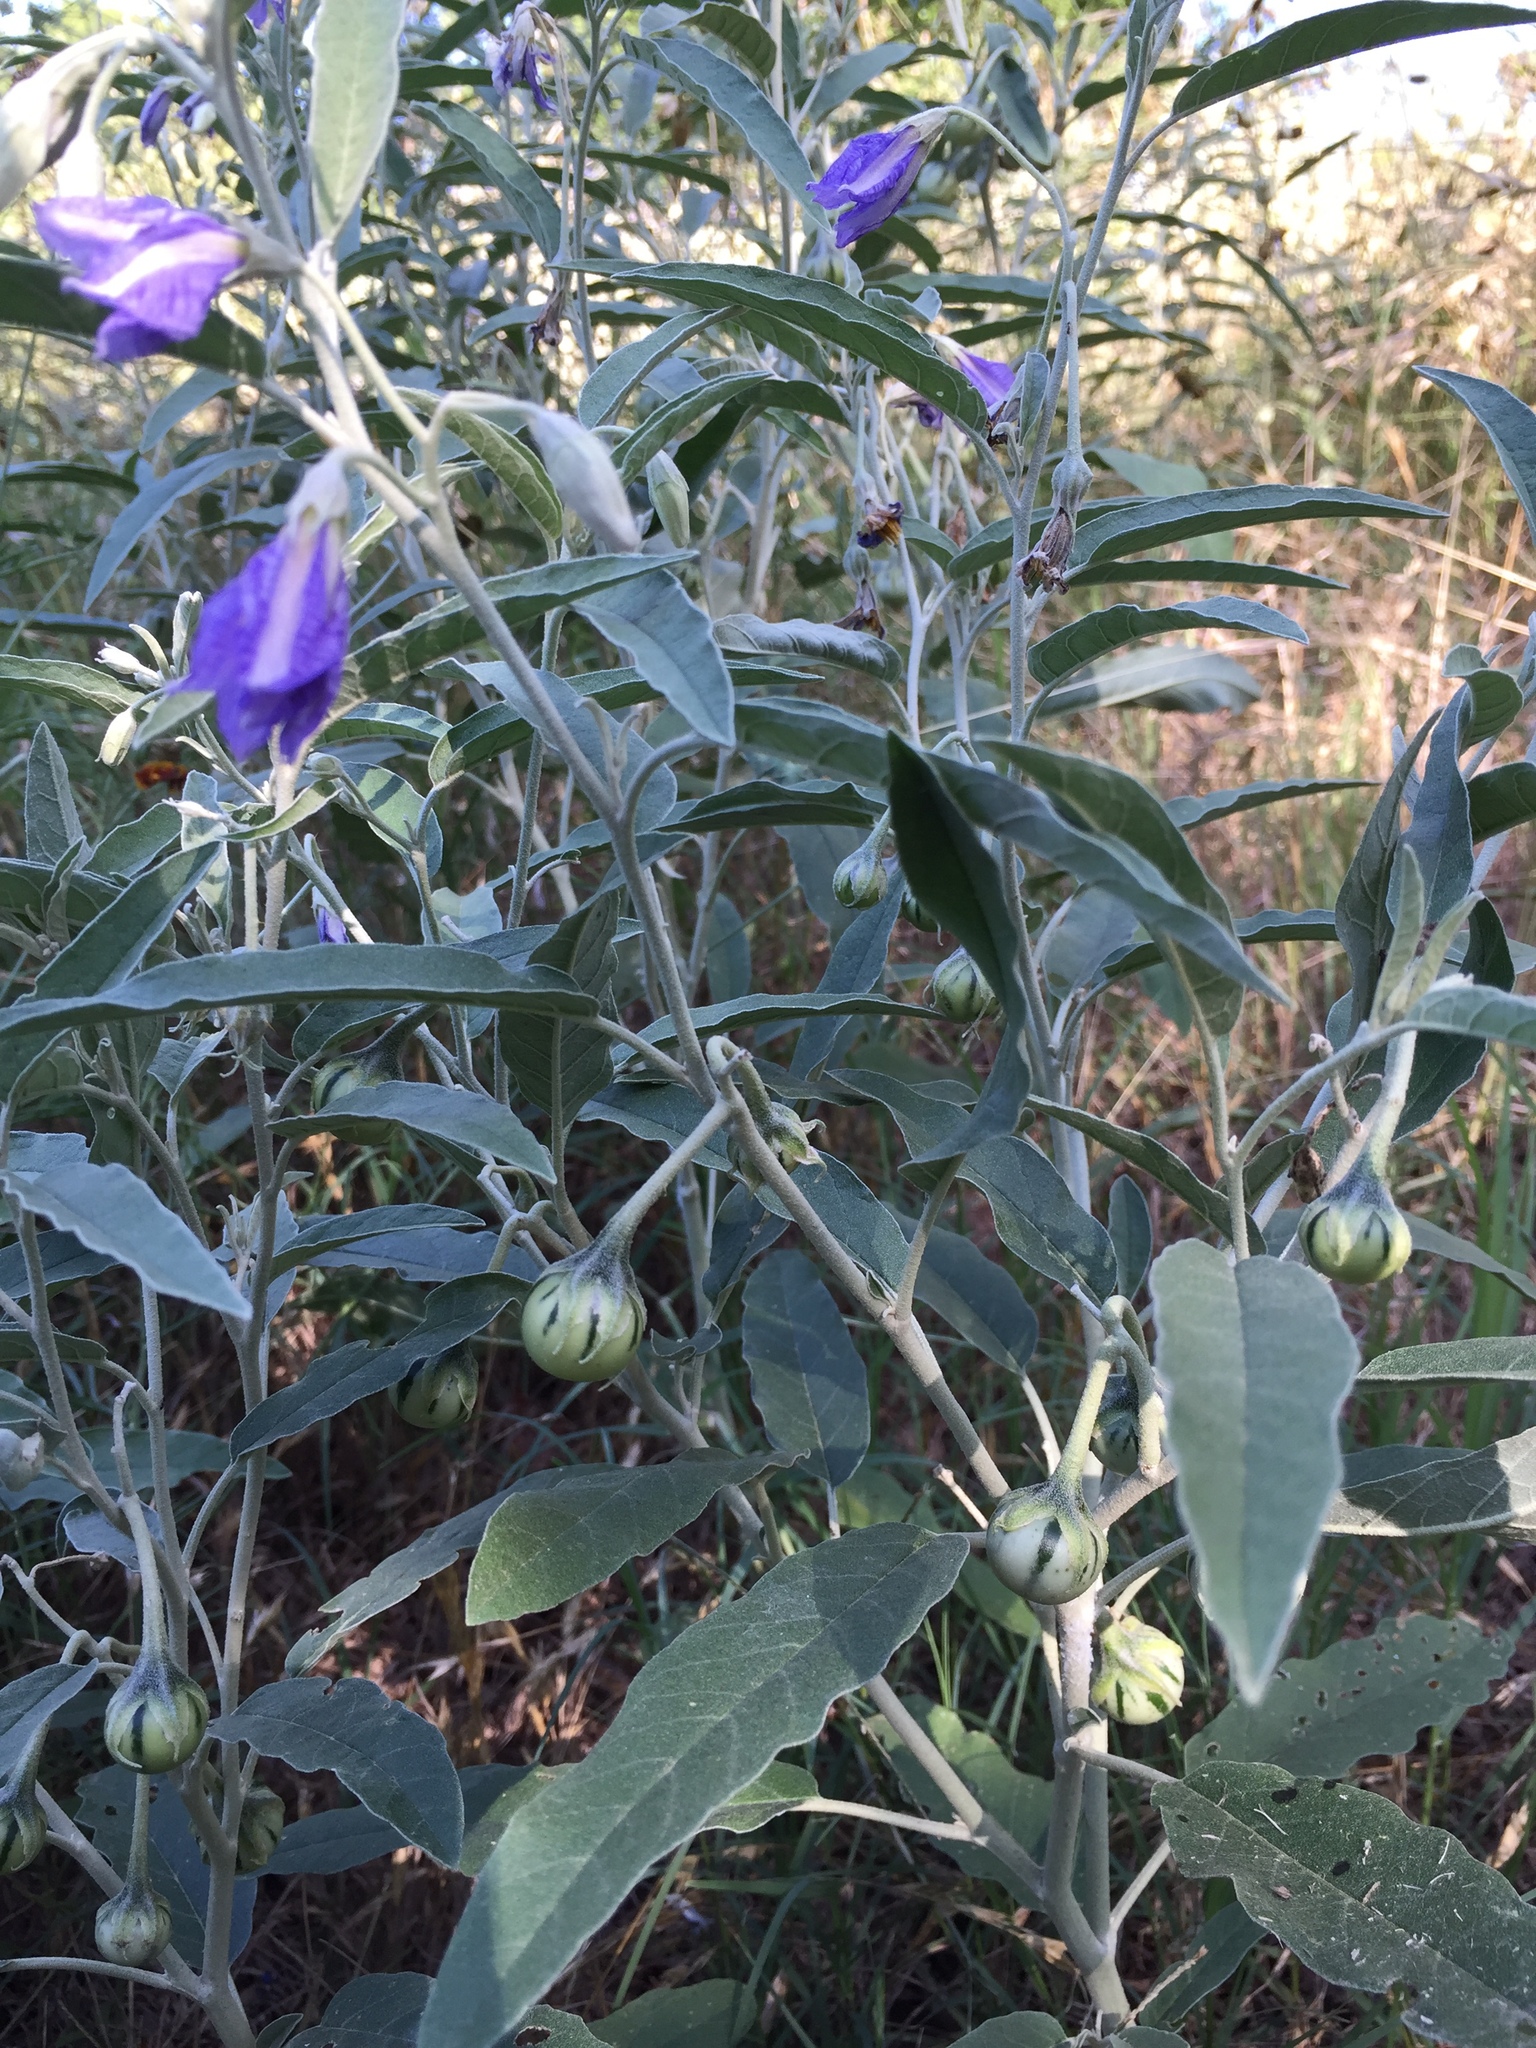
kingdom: Plantae
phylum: Tracheophyta
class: Magnoliopsida
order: Solanales
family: Solanaceae
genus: Solanum
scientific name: Solanum elaeagnifolium
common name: Silverleaf nightshade
